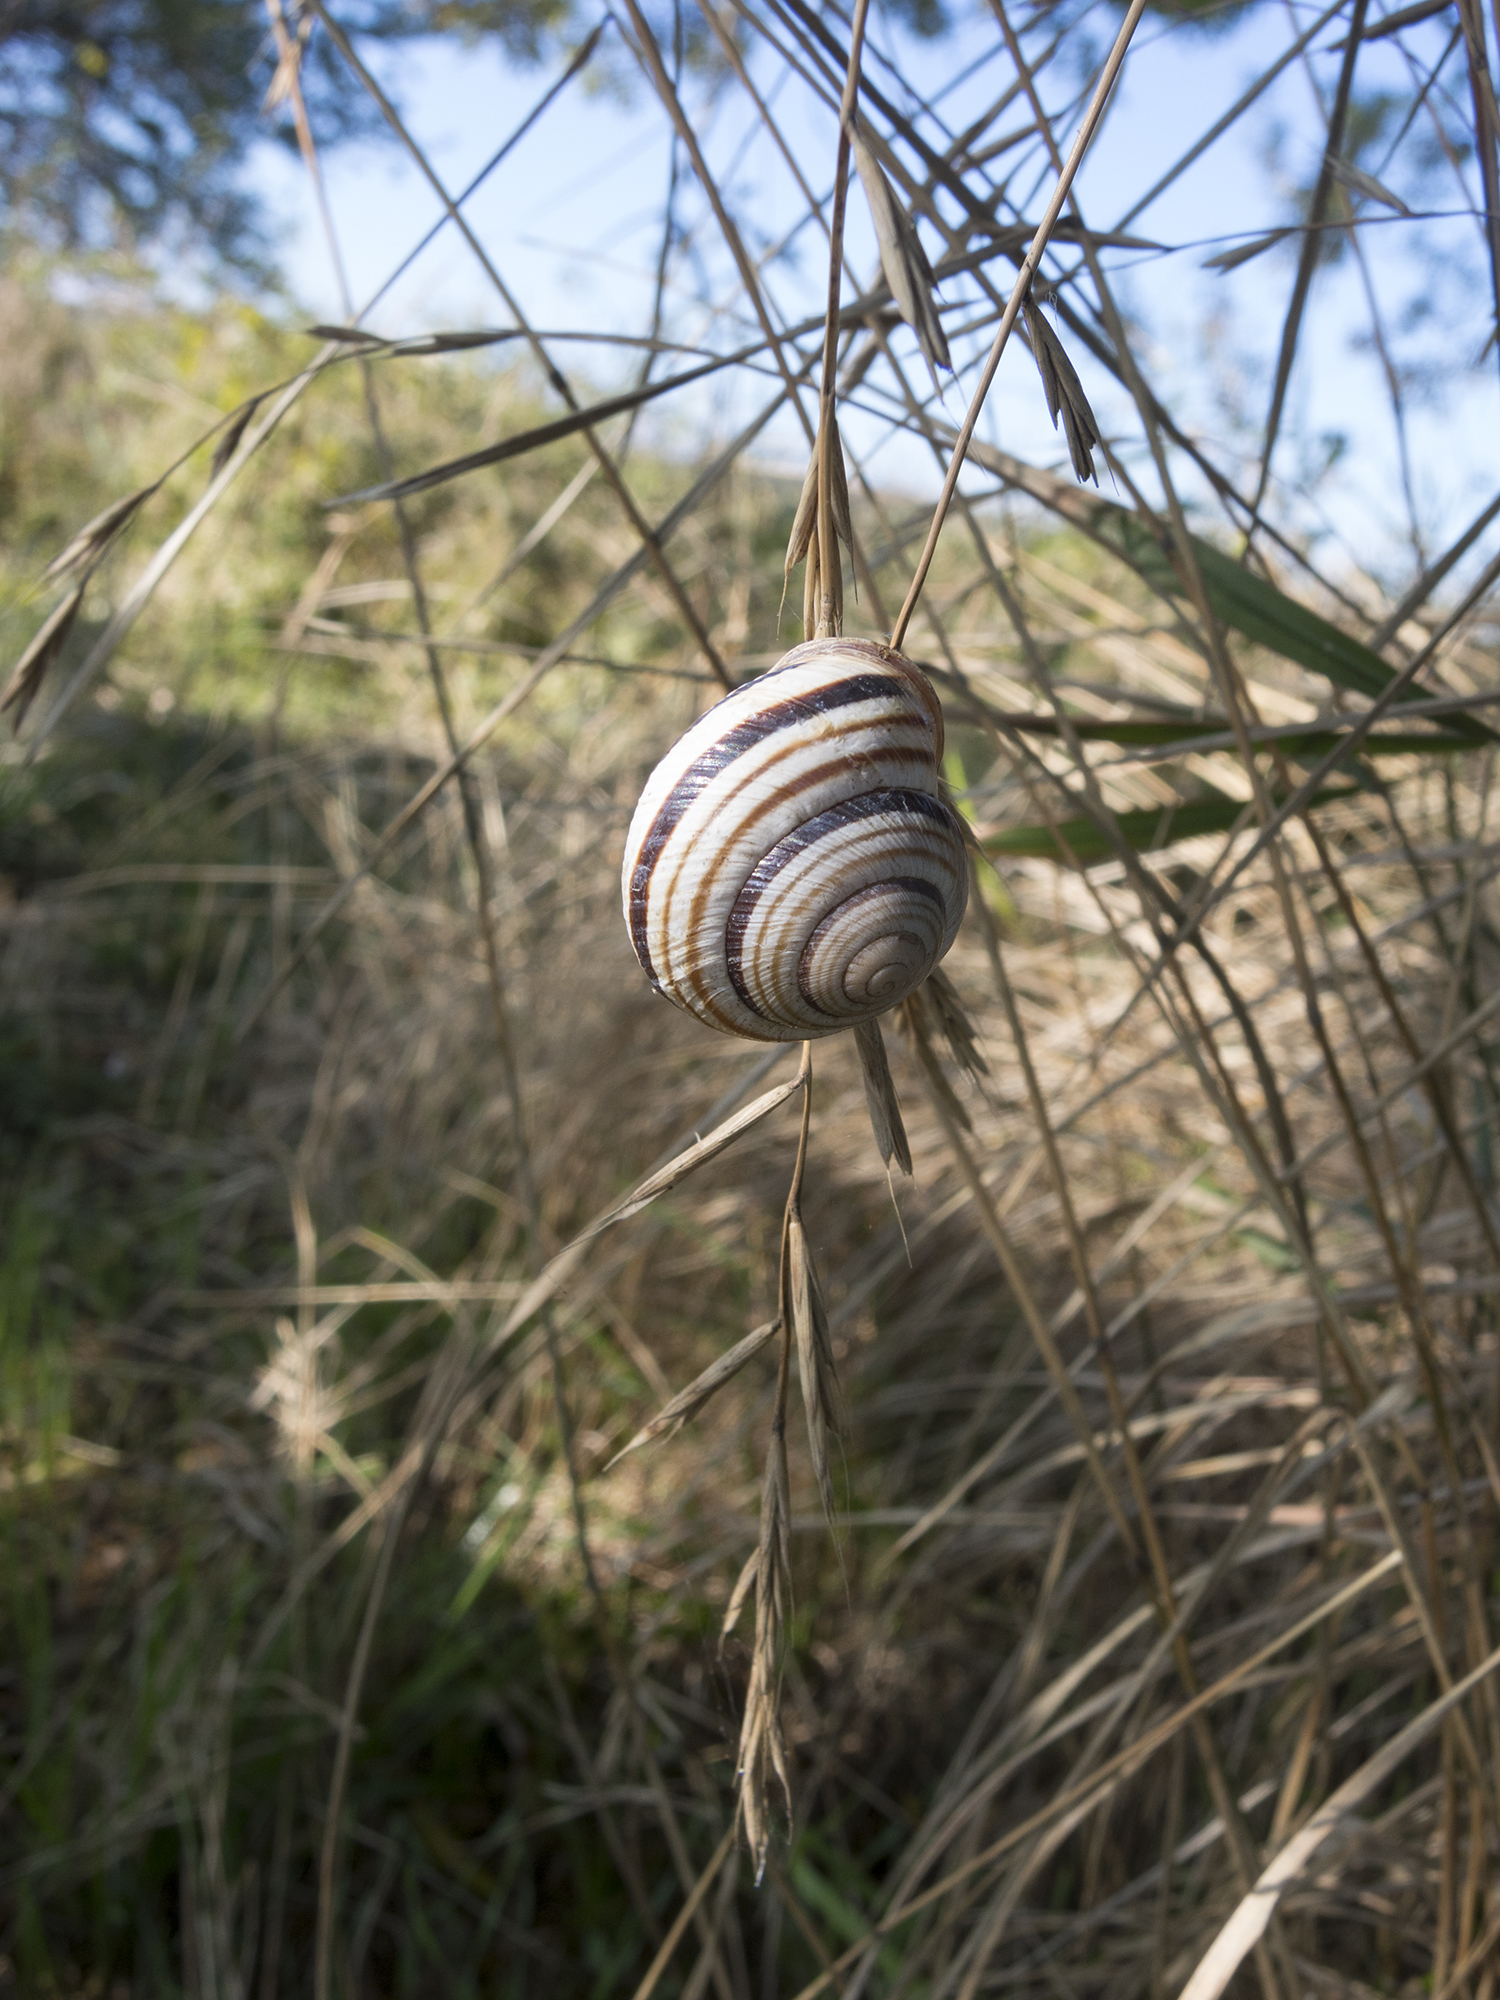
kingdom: Animalia
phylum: Mollusca
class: Gastropoda
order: Stylommatophora
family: Helicidae
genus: Caucasotachea
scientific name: Caucasotachea vindobonensis
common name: European helicid land snail
